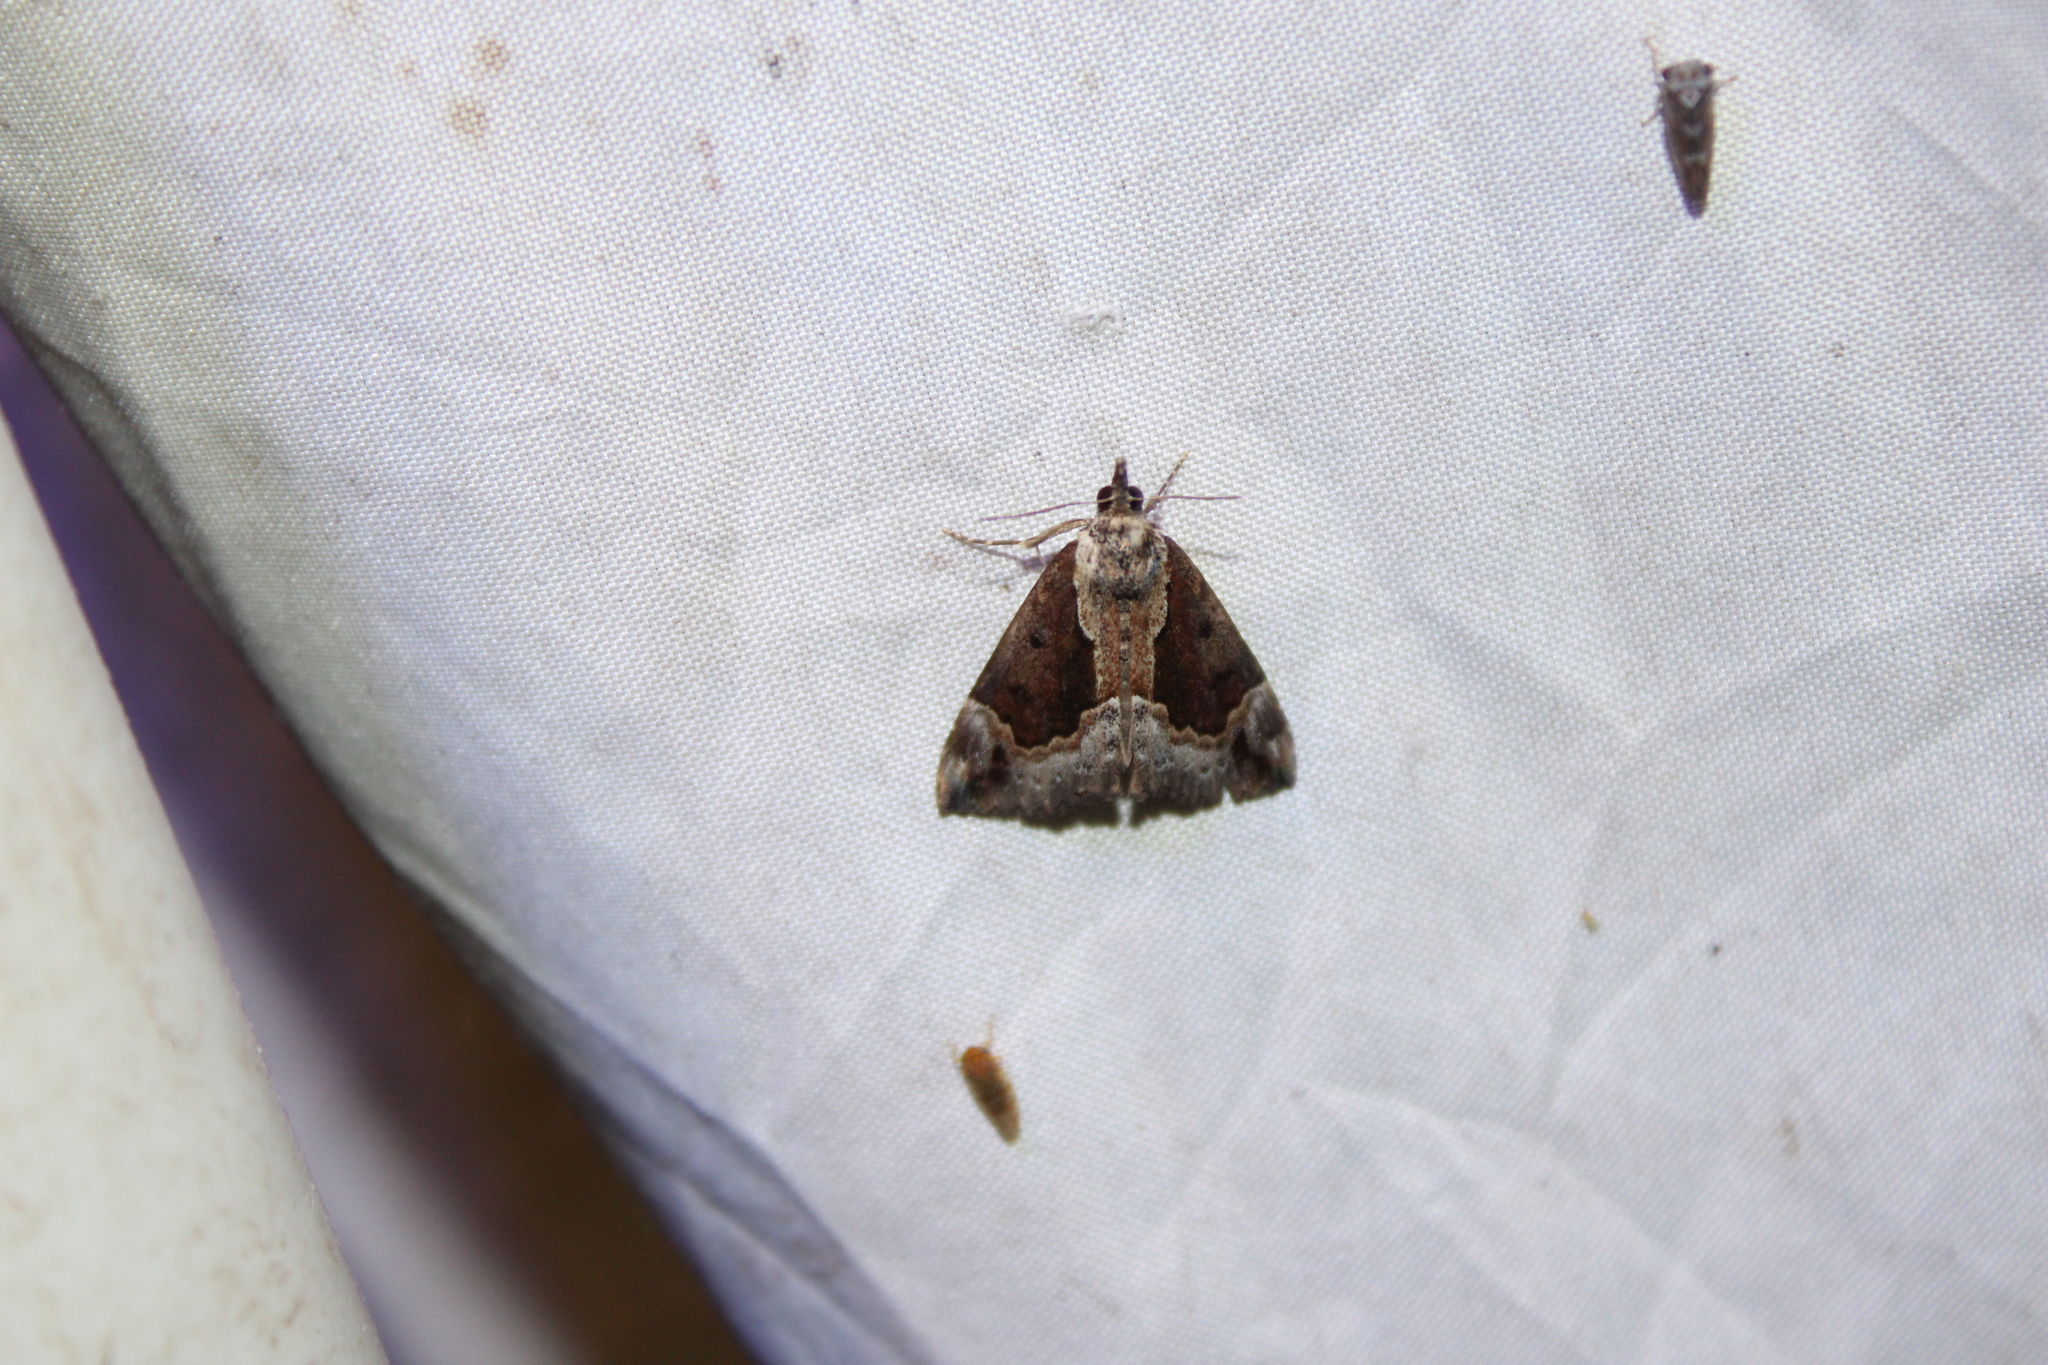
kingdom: Animalia
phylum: Arthropoda
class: Insecta
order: Lepidoptera
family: Erebidae
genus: Hypena
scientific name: Hypena baltimoralis
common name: Baltimore snout
